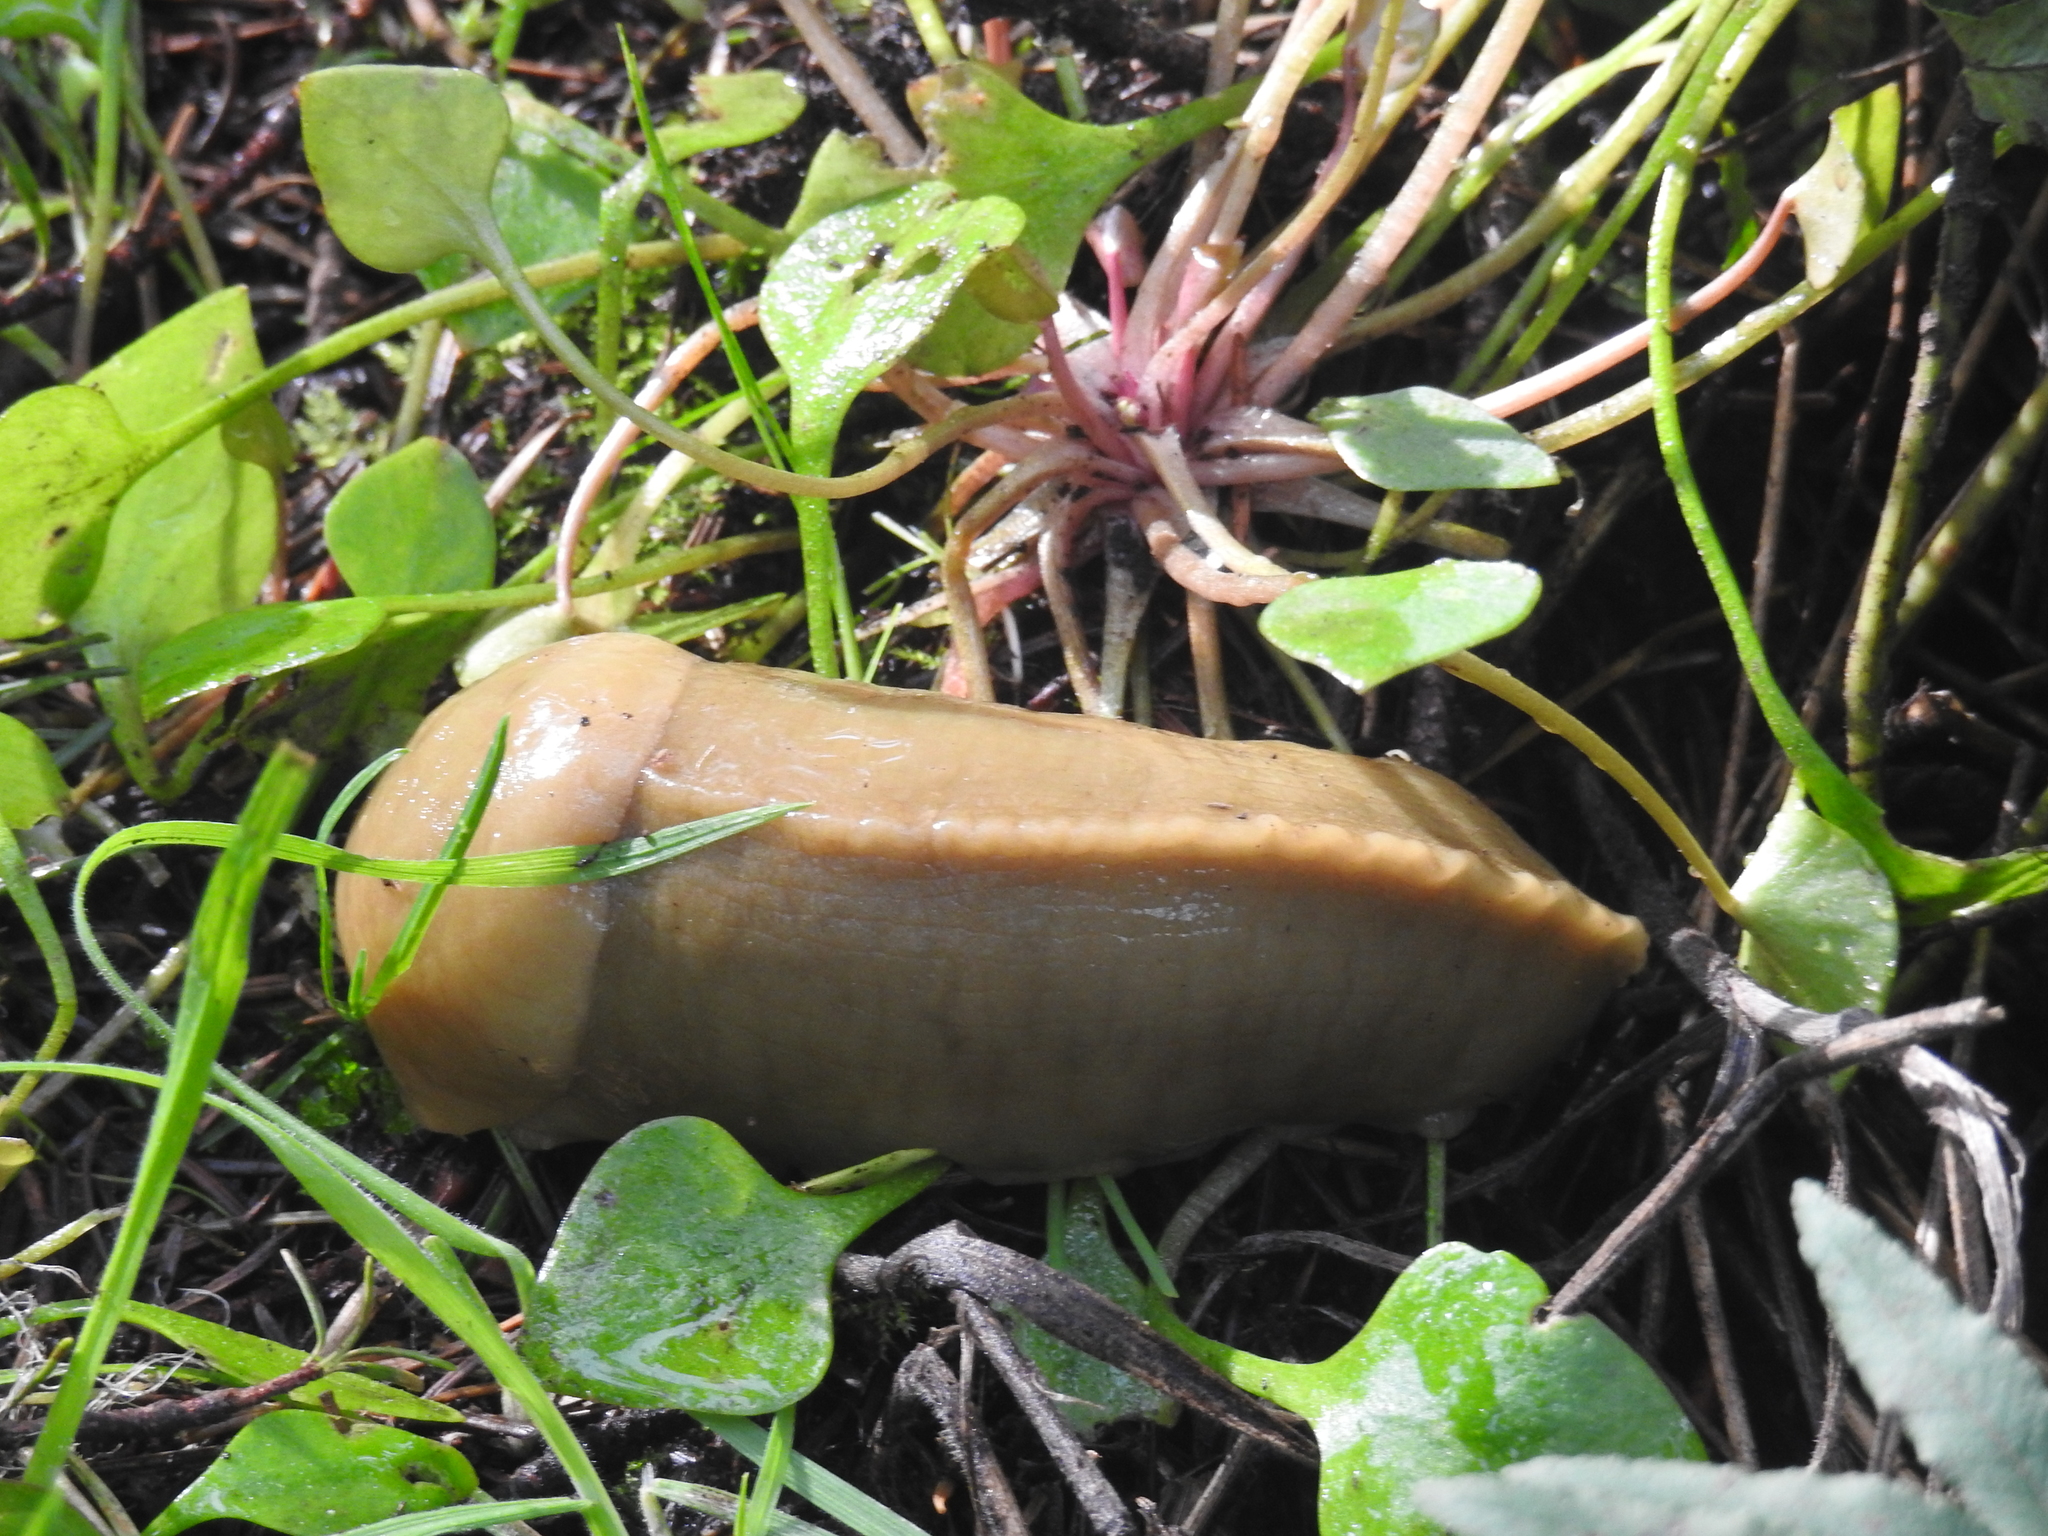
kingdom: Animalia
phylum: Mollusca
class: Gastropoda
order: Stylommatophora
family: Ariolimacidae
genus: Ariolimax
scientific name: Ariolimax columbianus
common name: Pacific banana slug
